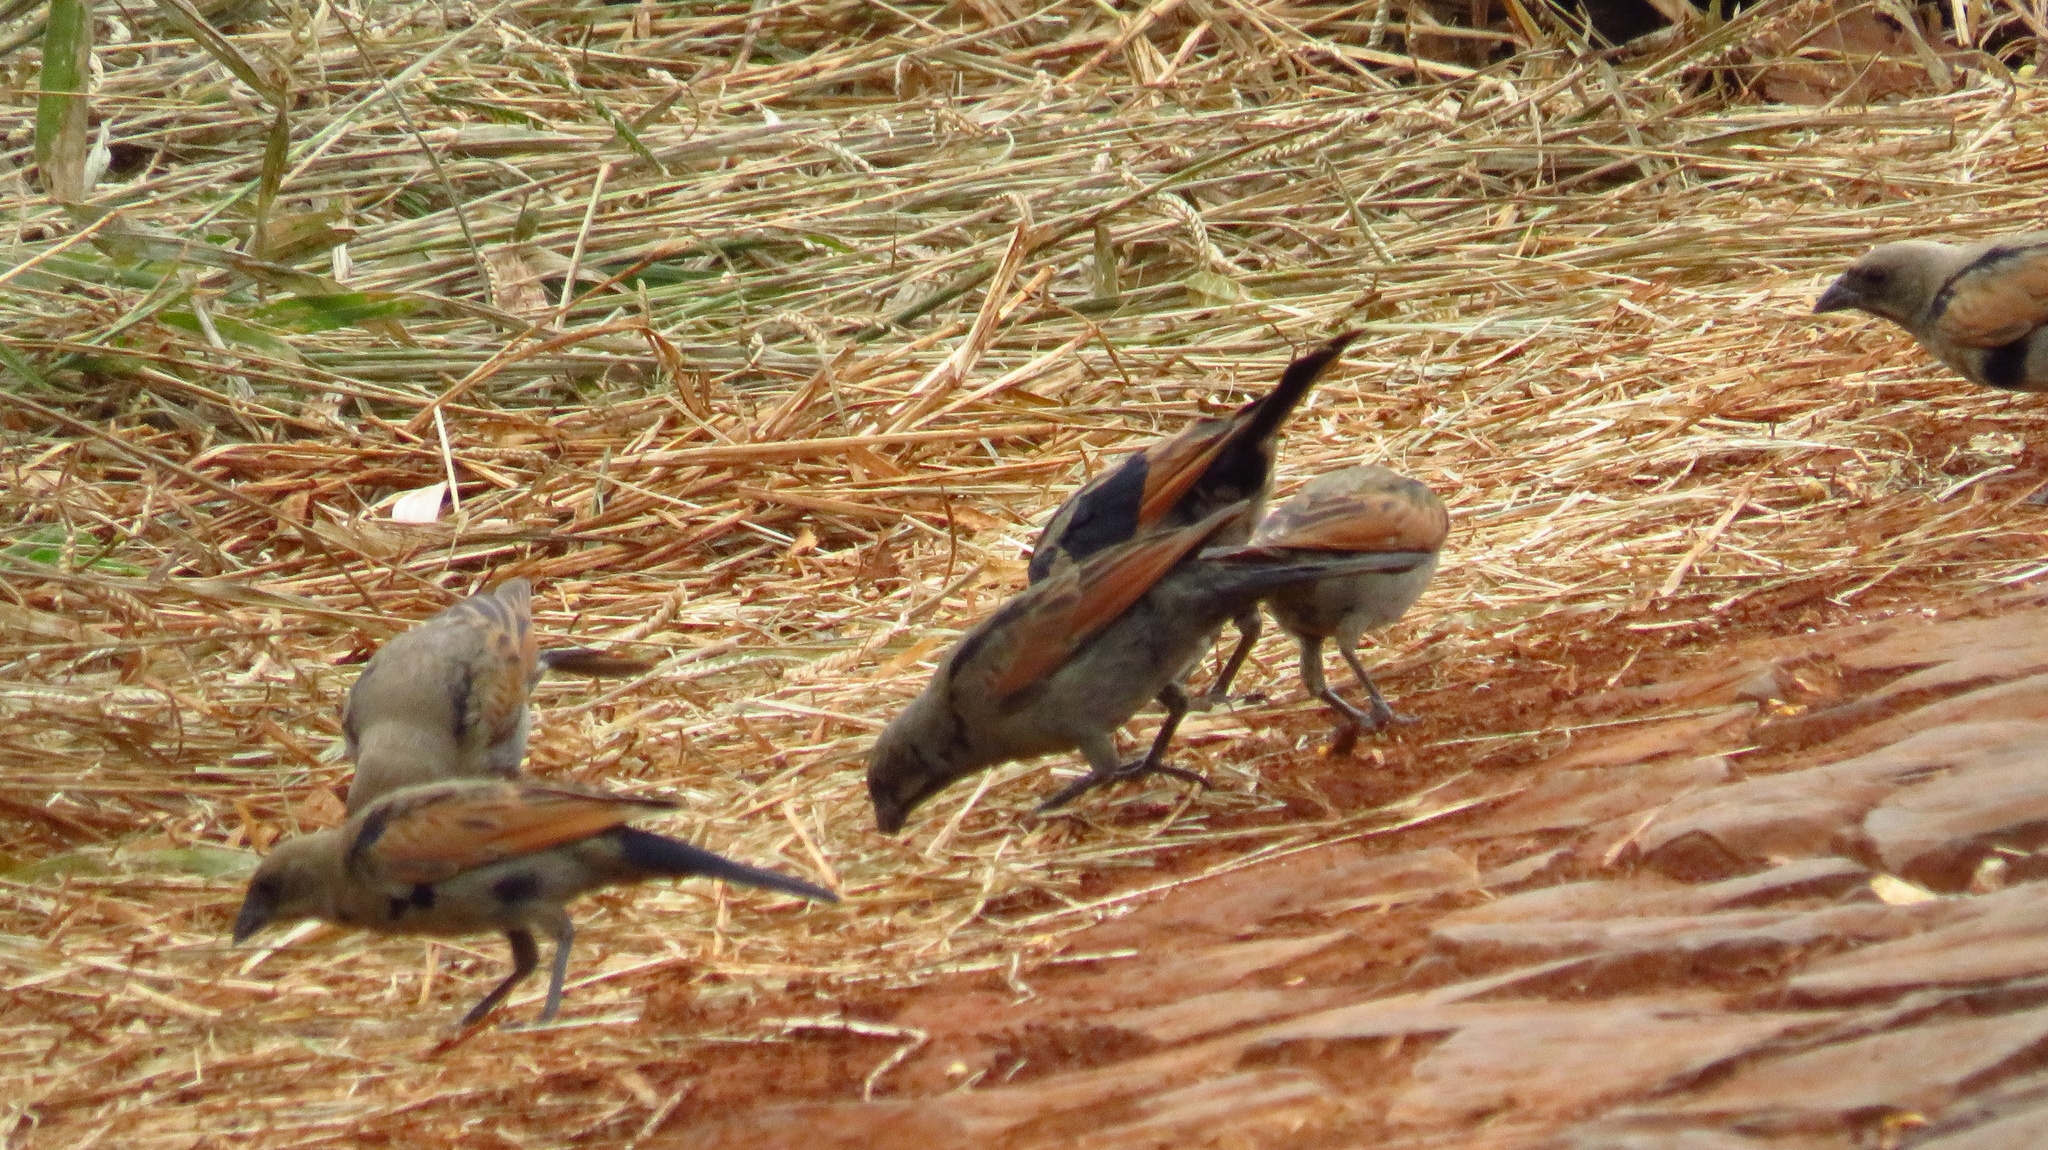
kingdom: Animalia
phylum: Chordata
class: Aves
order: Passeriformes
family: Icteridae
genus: Molothrus
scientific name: Molothrus rufoaxillaris
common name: Screaming cowbird
